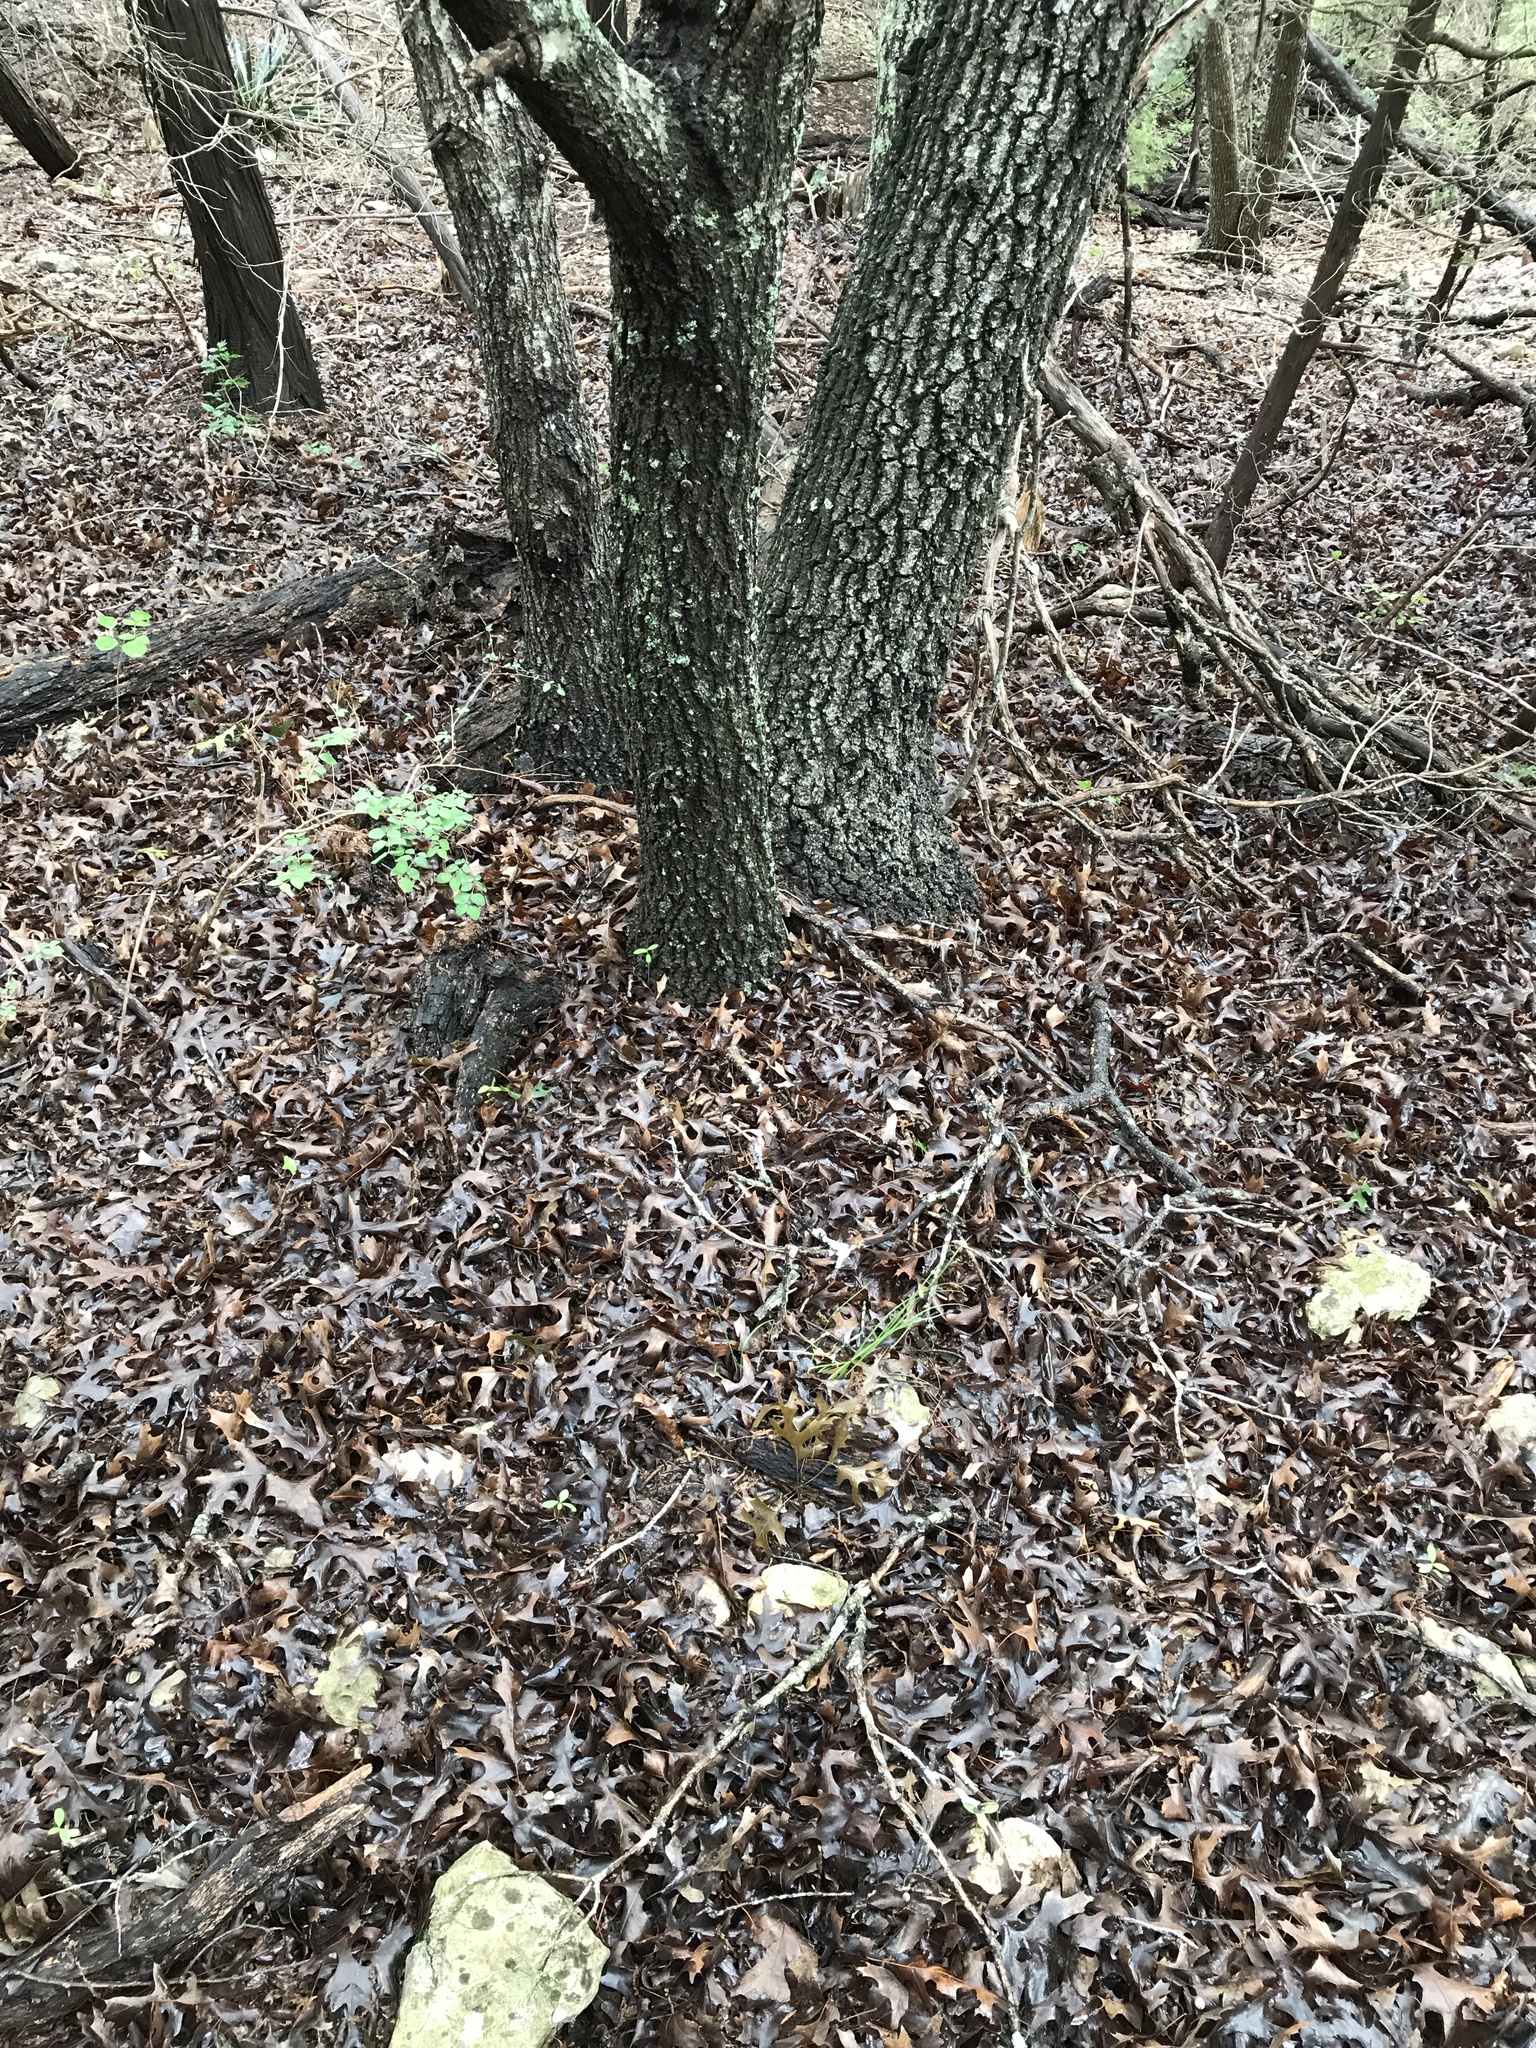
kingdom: Plantae
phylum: Tracheophyta
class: Magnoliopsida
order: Fagales
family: Fagaceae
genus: Quercus
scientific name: Quercus buckleyi
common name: Buckley oak
